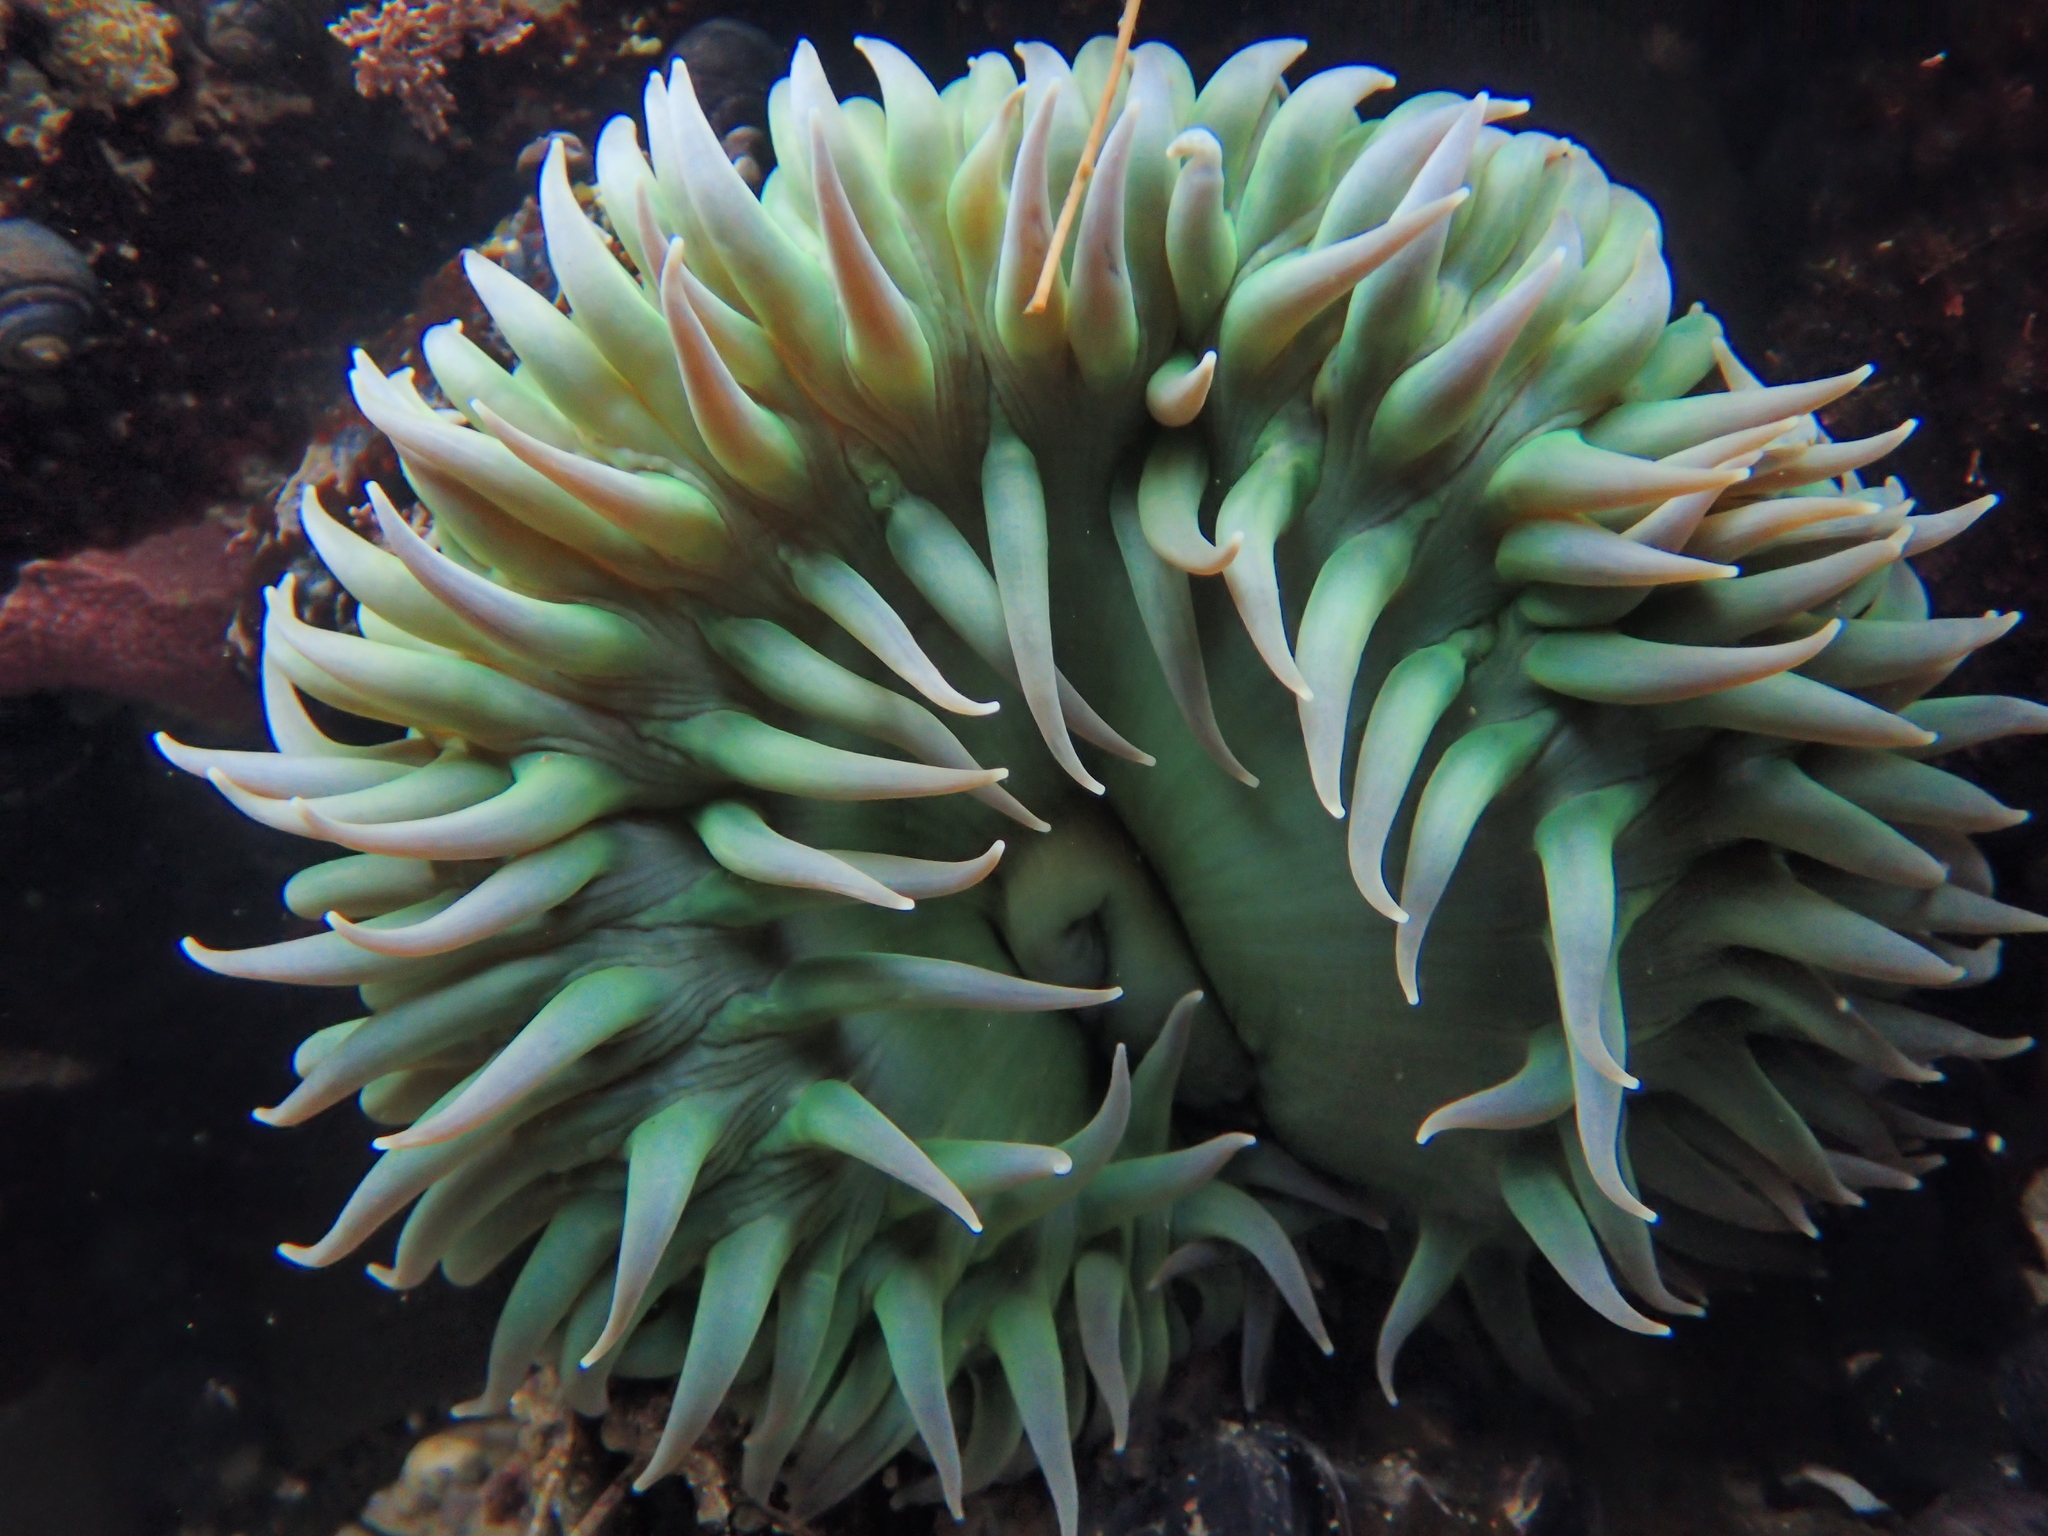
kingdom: Animalia
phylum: Cnidaria
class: Anthozoa
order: Actiniaria
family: Actiniidae
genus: Anthopleura
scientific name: Anthopleura xanthogrammica
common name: Giant green anemone
